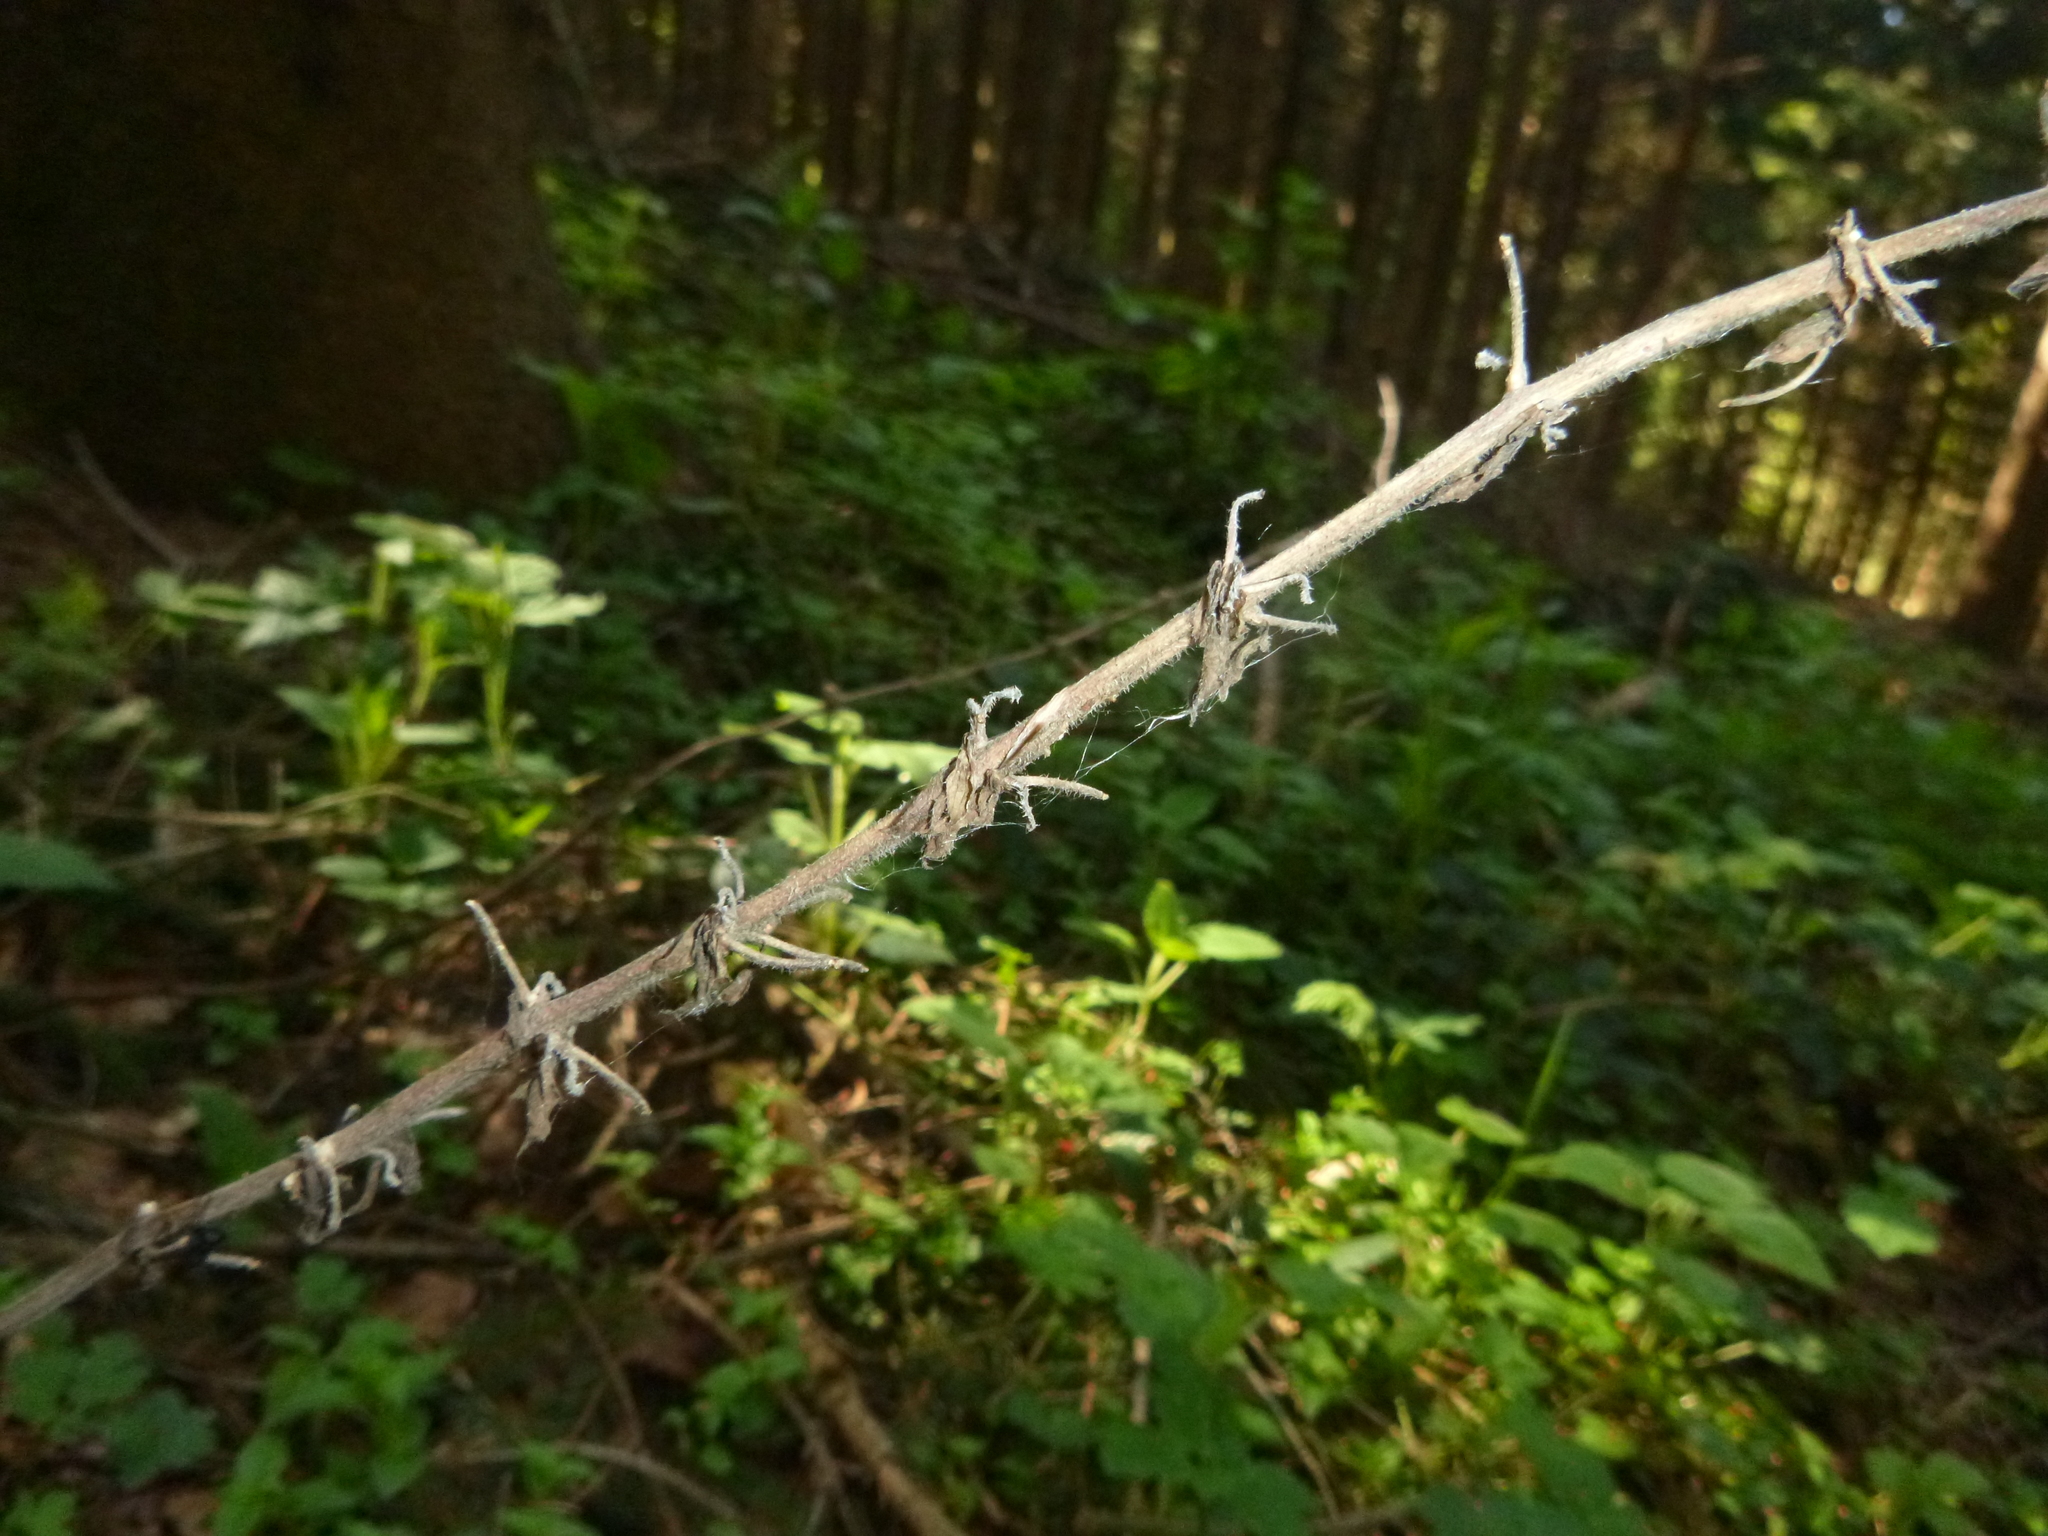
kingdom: Plantae
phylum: Tracheophyta
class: Magnoliopsida
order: Lamiales
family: Lamiaceae
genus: Salvia
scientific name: Salvia glutinosa
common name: Sticky clary
